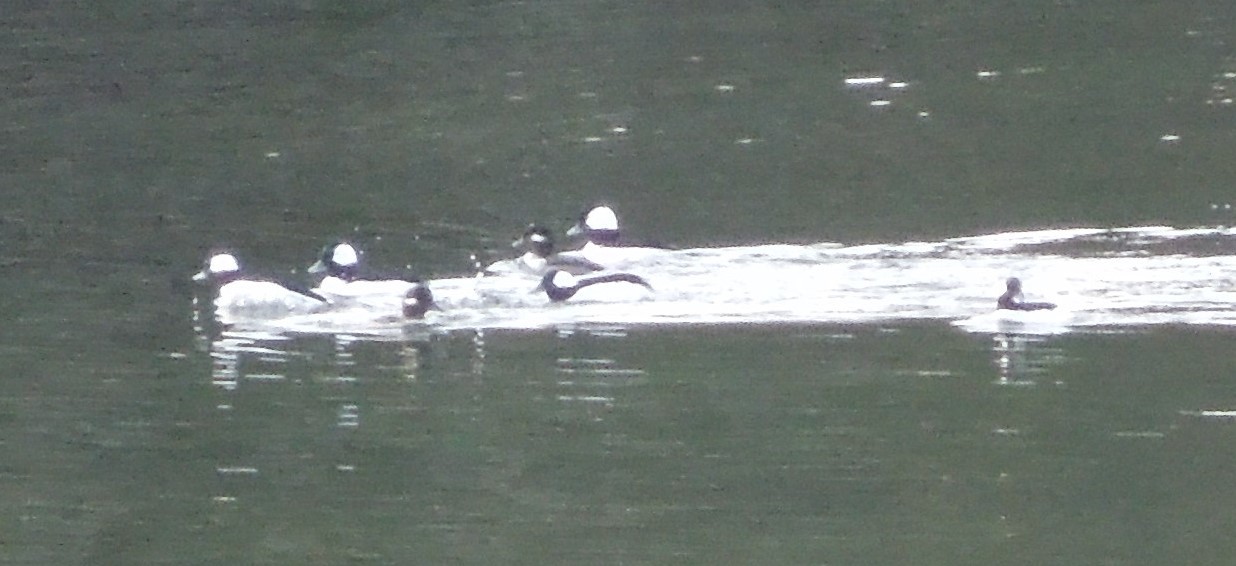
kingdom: Animalia
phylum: Chordata
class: Aves
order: Anseriformes
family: Anatidae
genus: Bucephala
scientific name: Bucephala albeola
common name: Bufflehead
